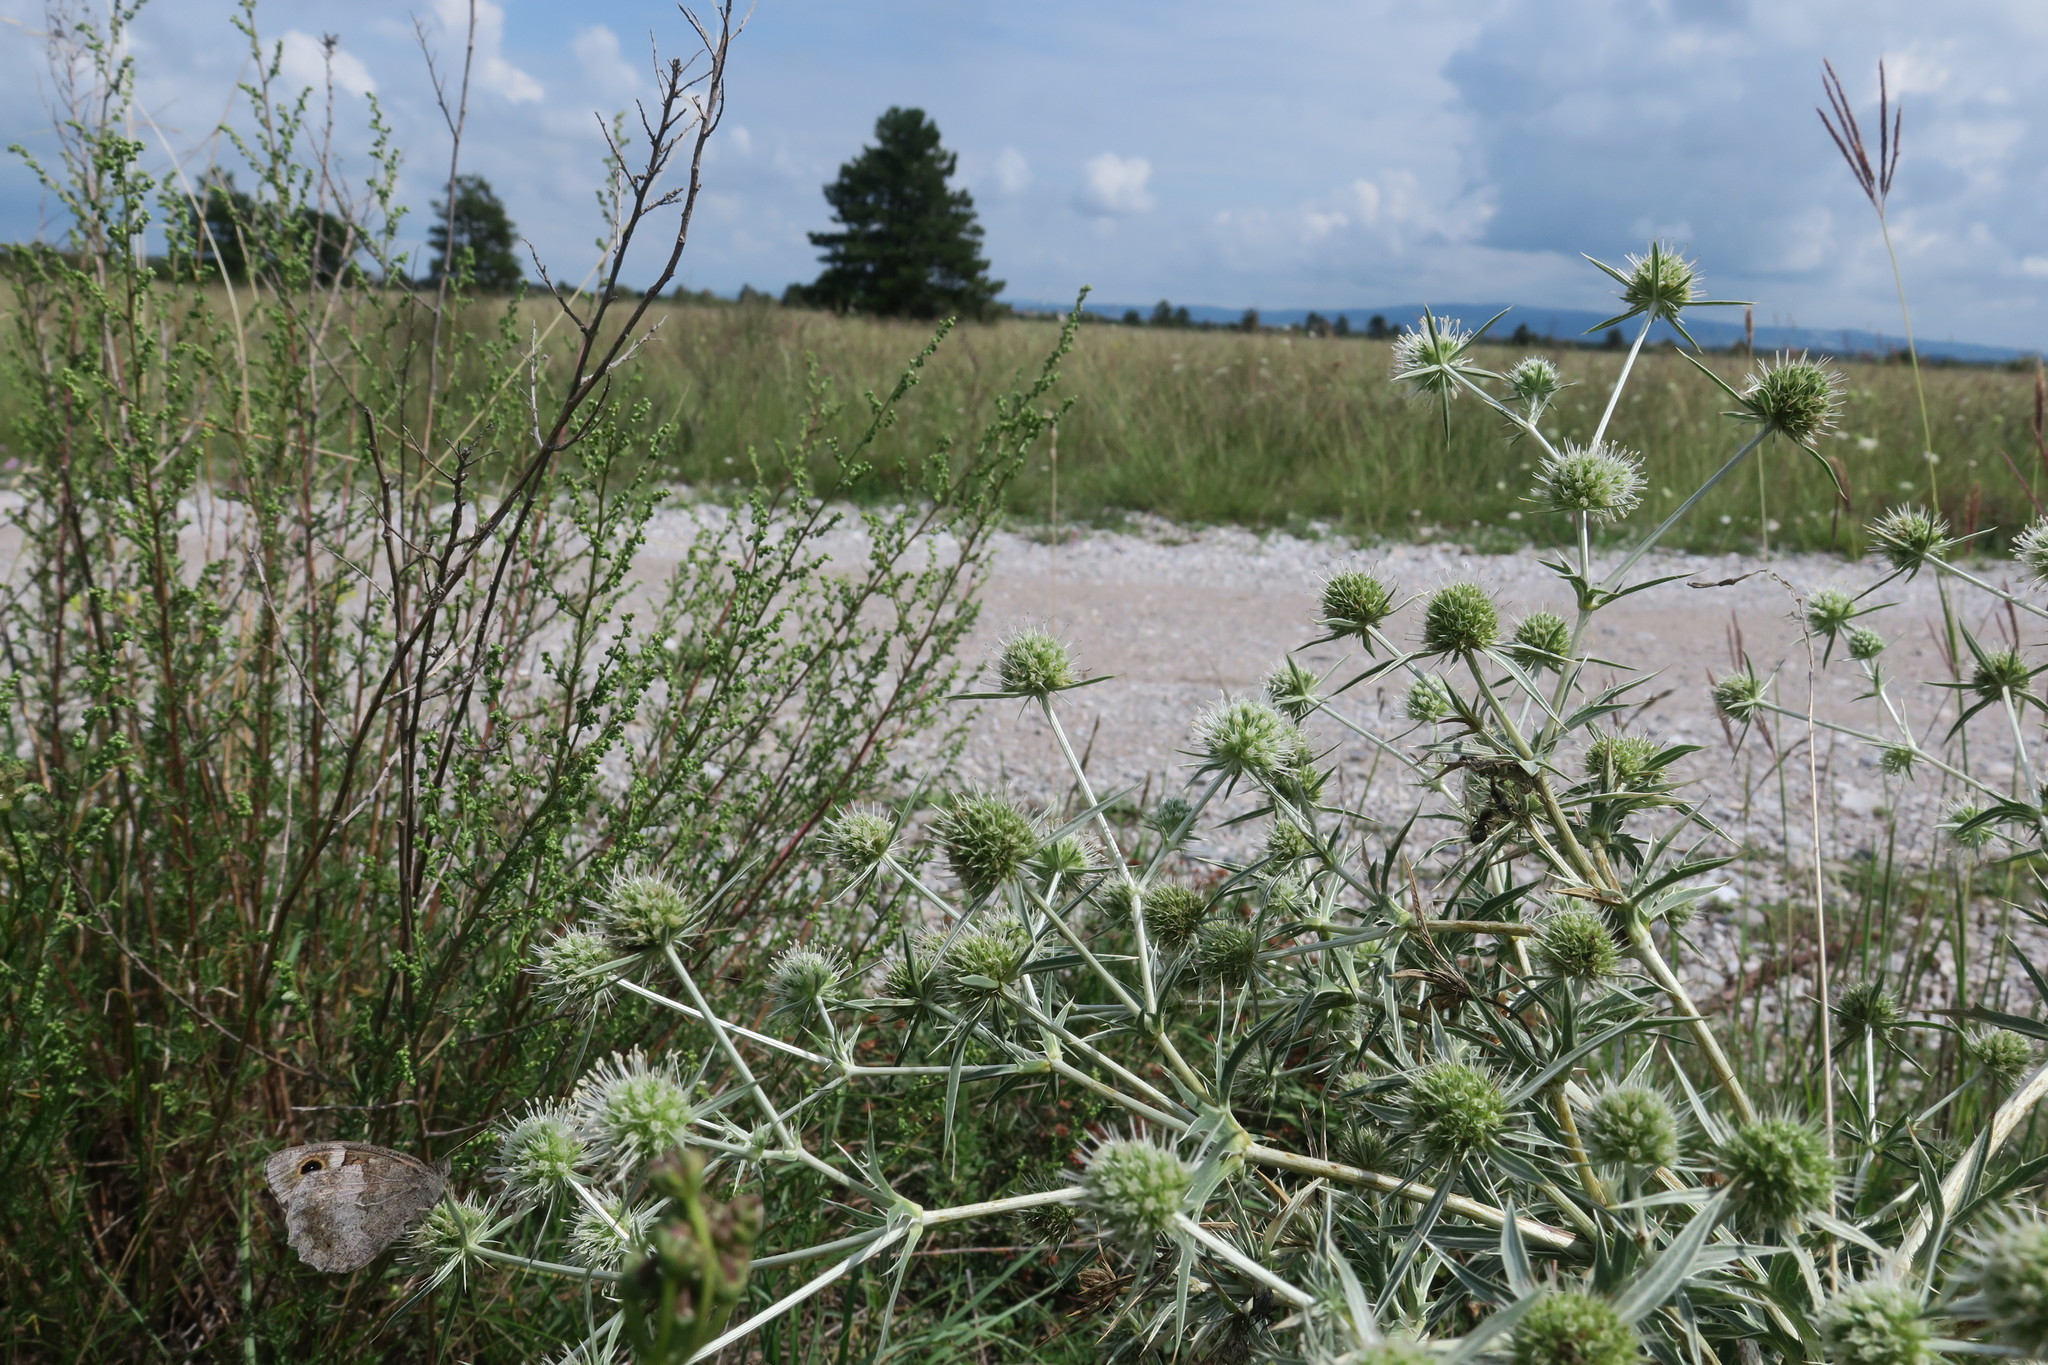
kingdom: Animalia
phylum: Arthropoda
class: Insecta
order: Lepidoptera
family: Nymphalidae
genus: Hipparchia
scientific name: Hipparchia statilinus
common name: Tree grayling
